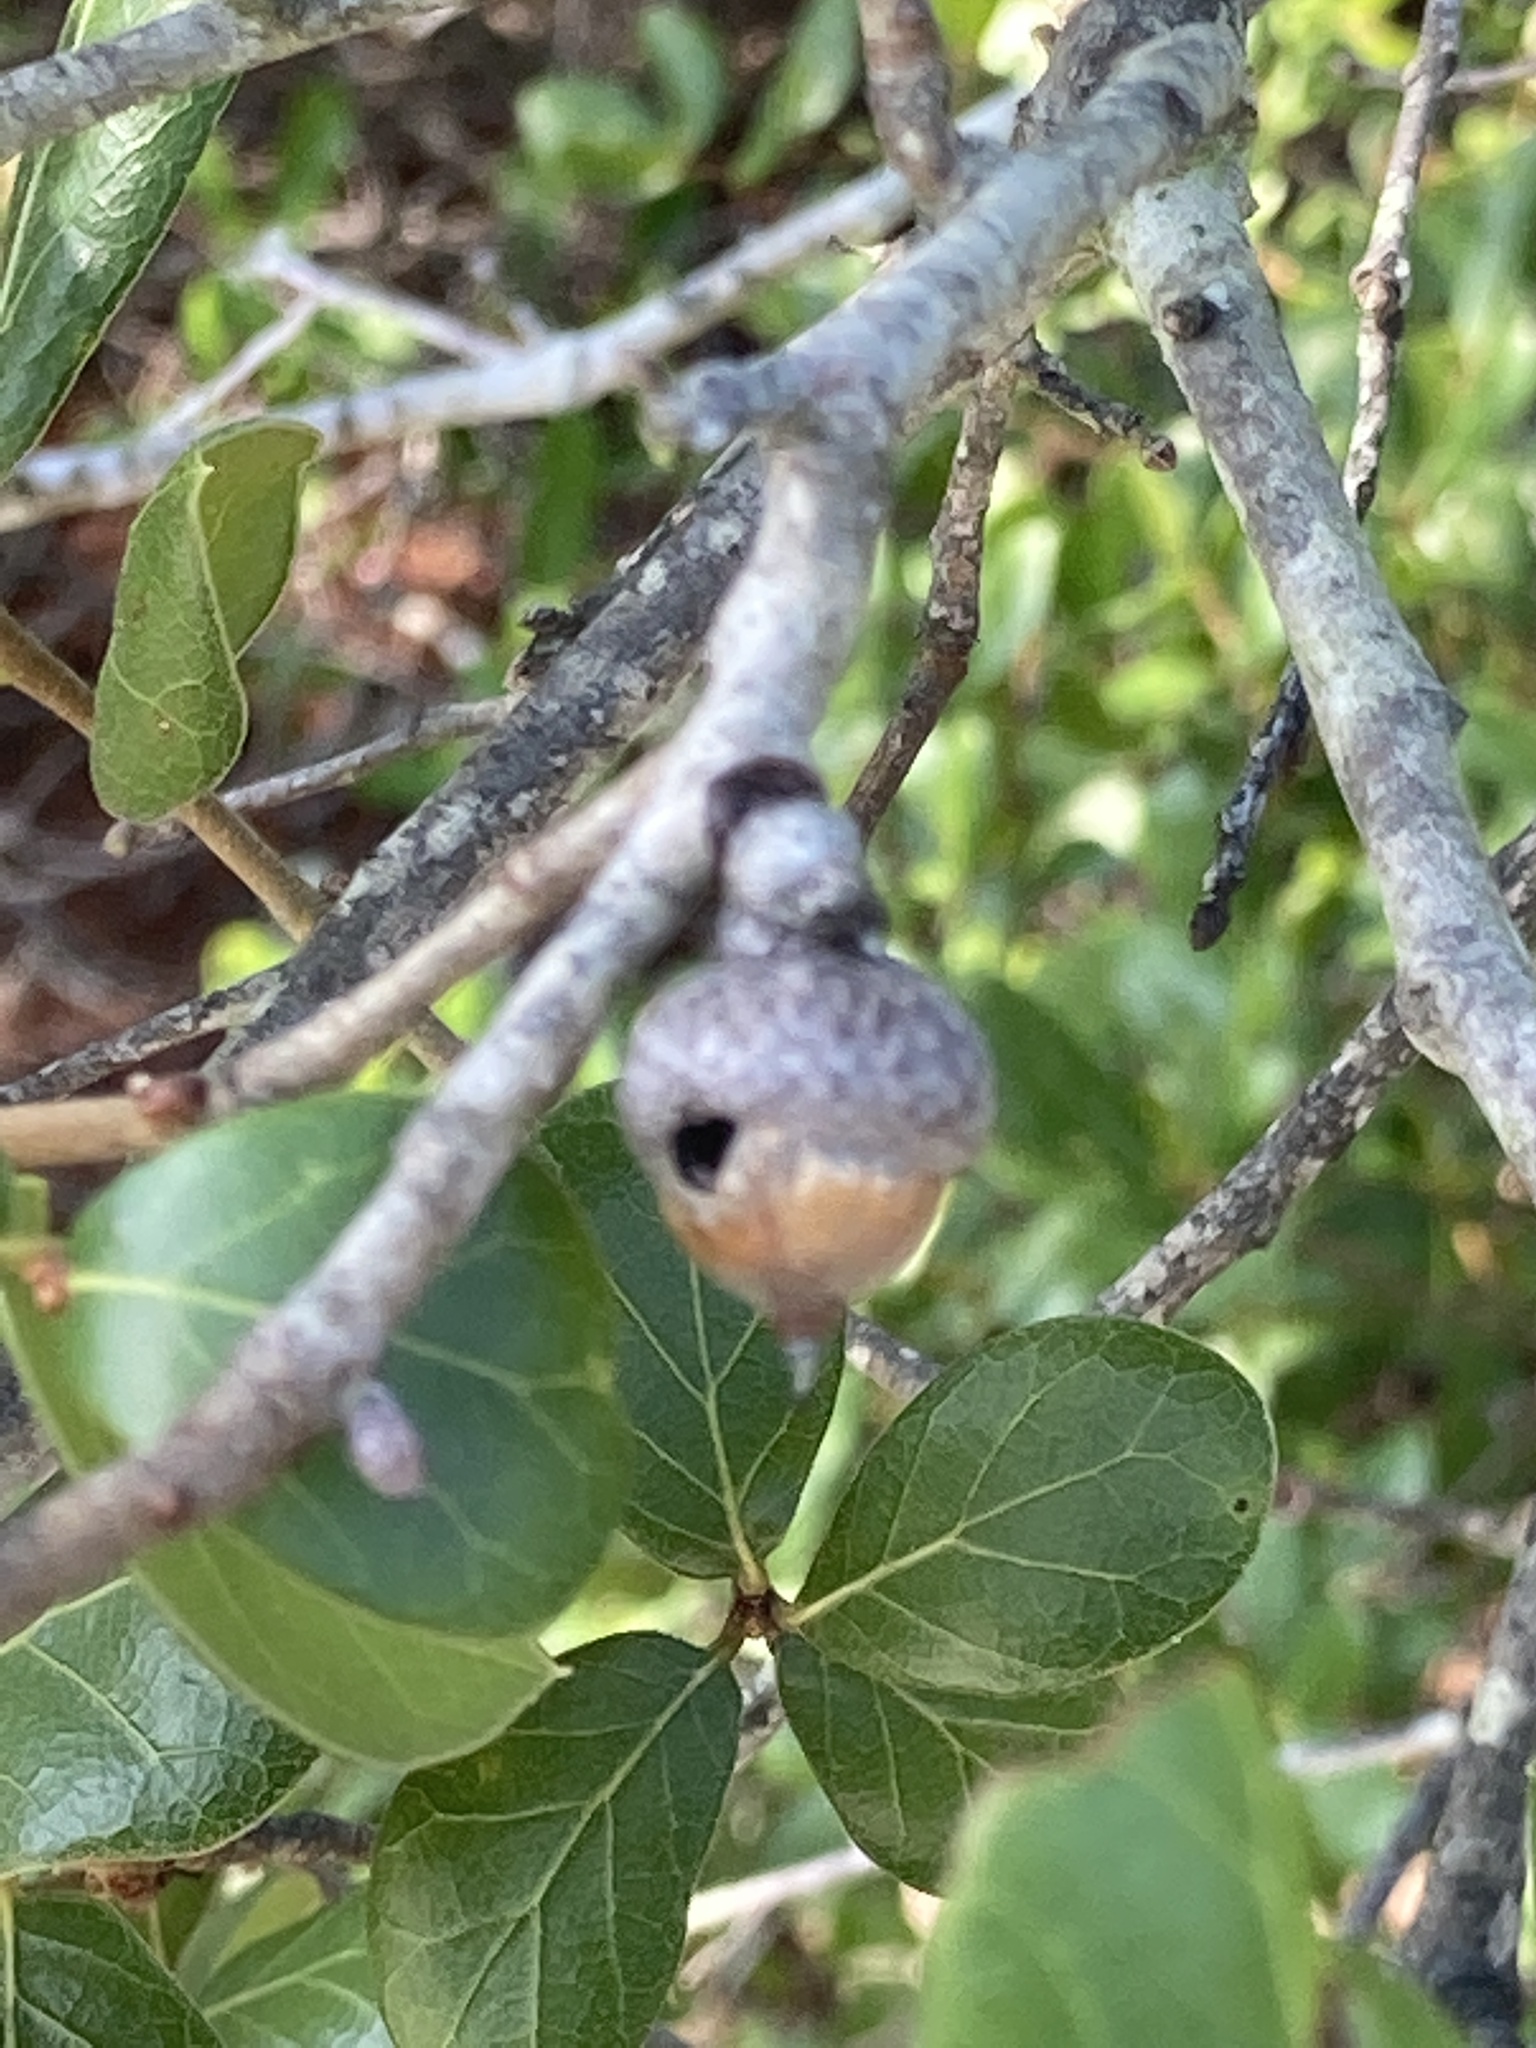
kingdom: Plantae
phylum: Tracheophyta
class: Magnoliopsida
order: Fagales
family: Fagaceae
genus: Quercus
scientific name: Quercus myrtifolia
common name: Myrtle oak
